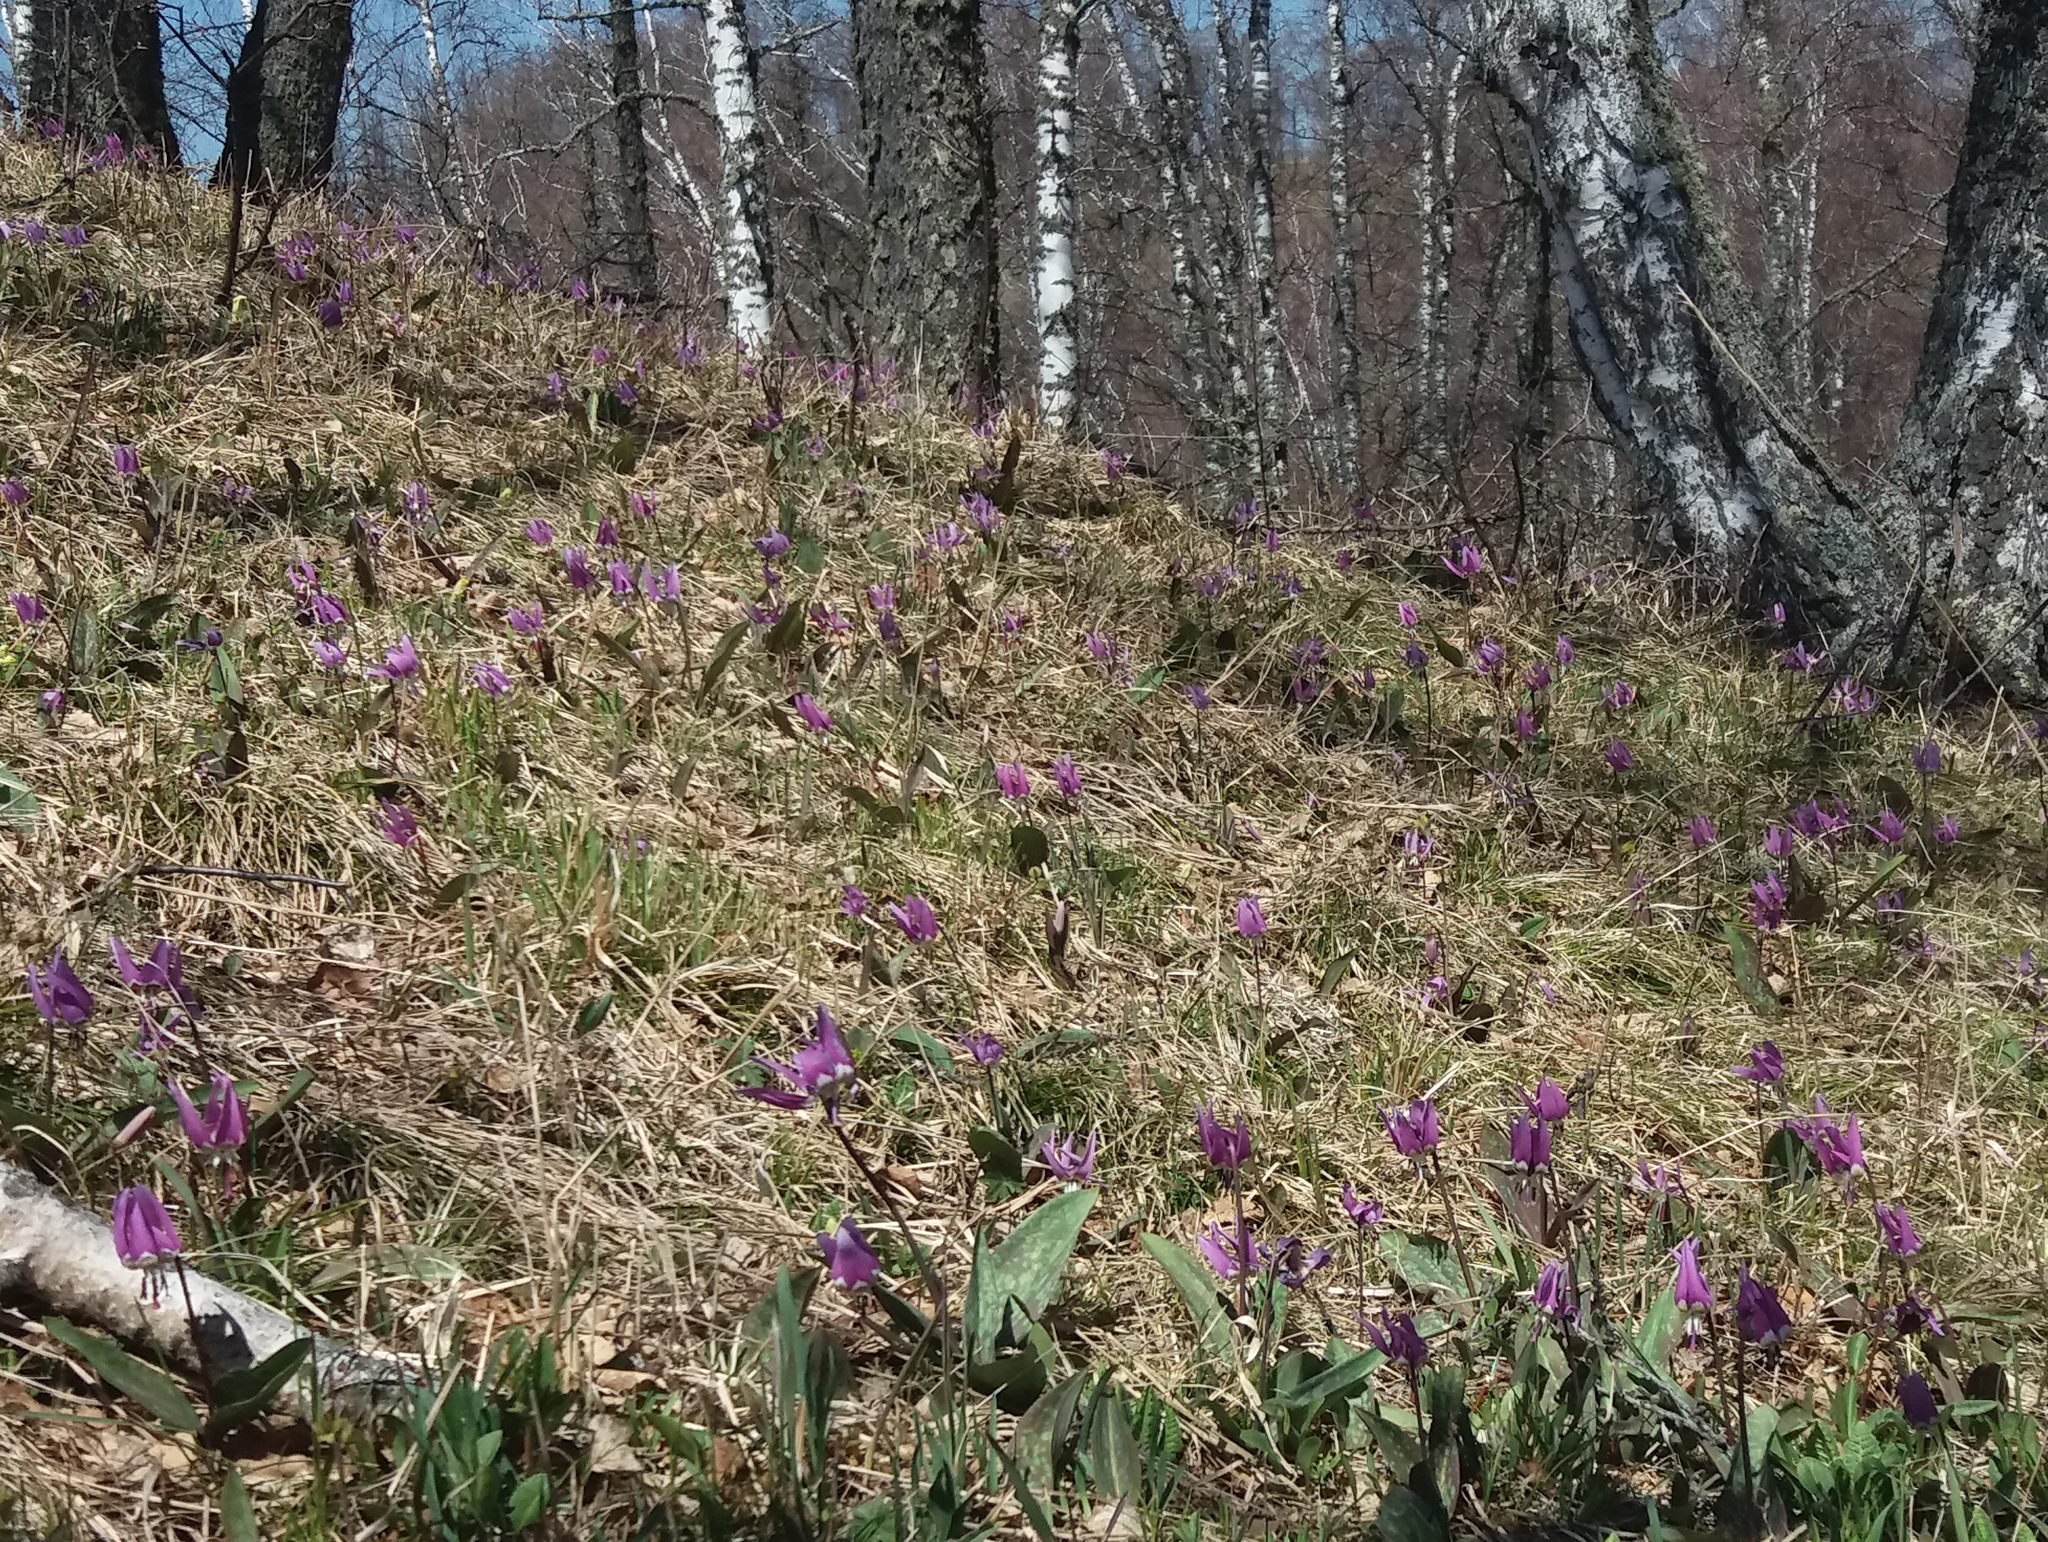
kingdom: Plantae
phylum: Tracheophyta
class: Liliopsida
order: Liliales
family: Liliaceae
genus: Erythronium
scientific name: Erythronium sulevii
